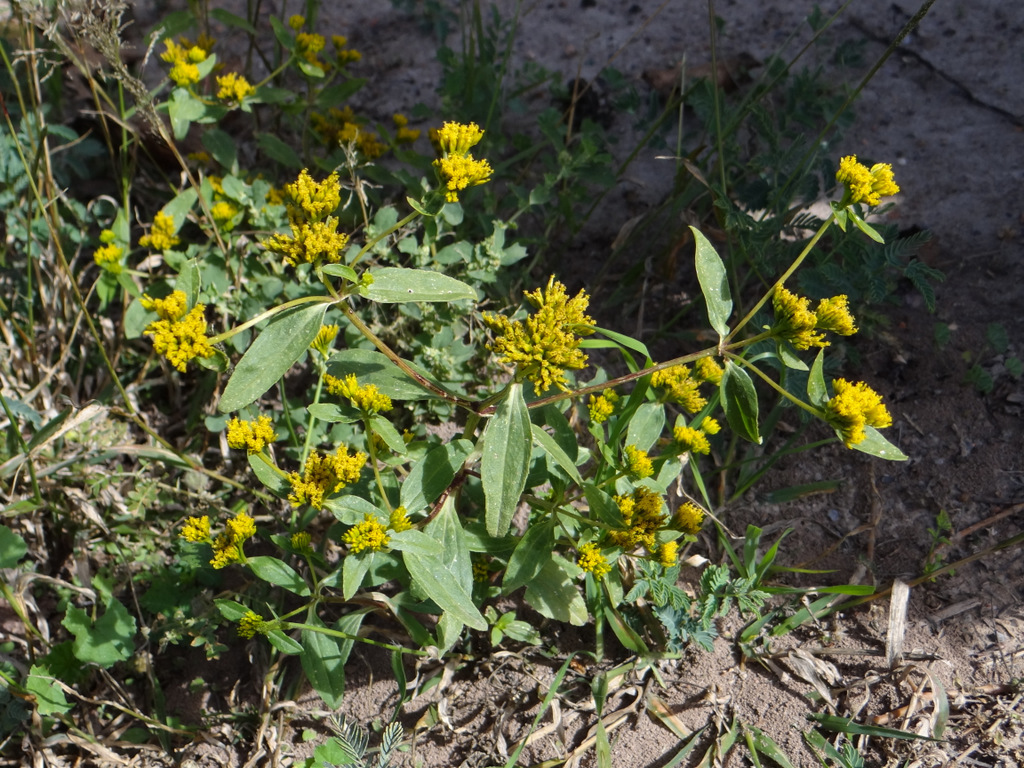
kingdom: Plantae
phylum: Tracheophyta
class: Magnoliopsida
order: Asterales
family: Asteraceae
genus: Flaveria
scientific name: Flaveria bidentis
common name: Coastal plain yellowtops
